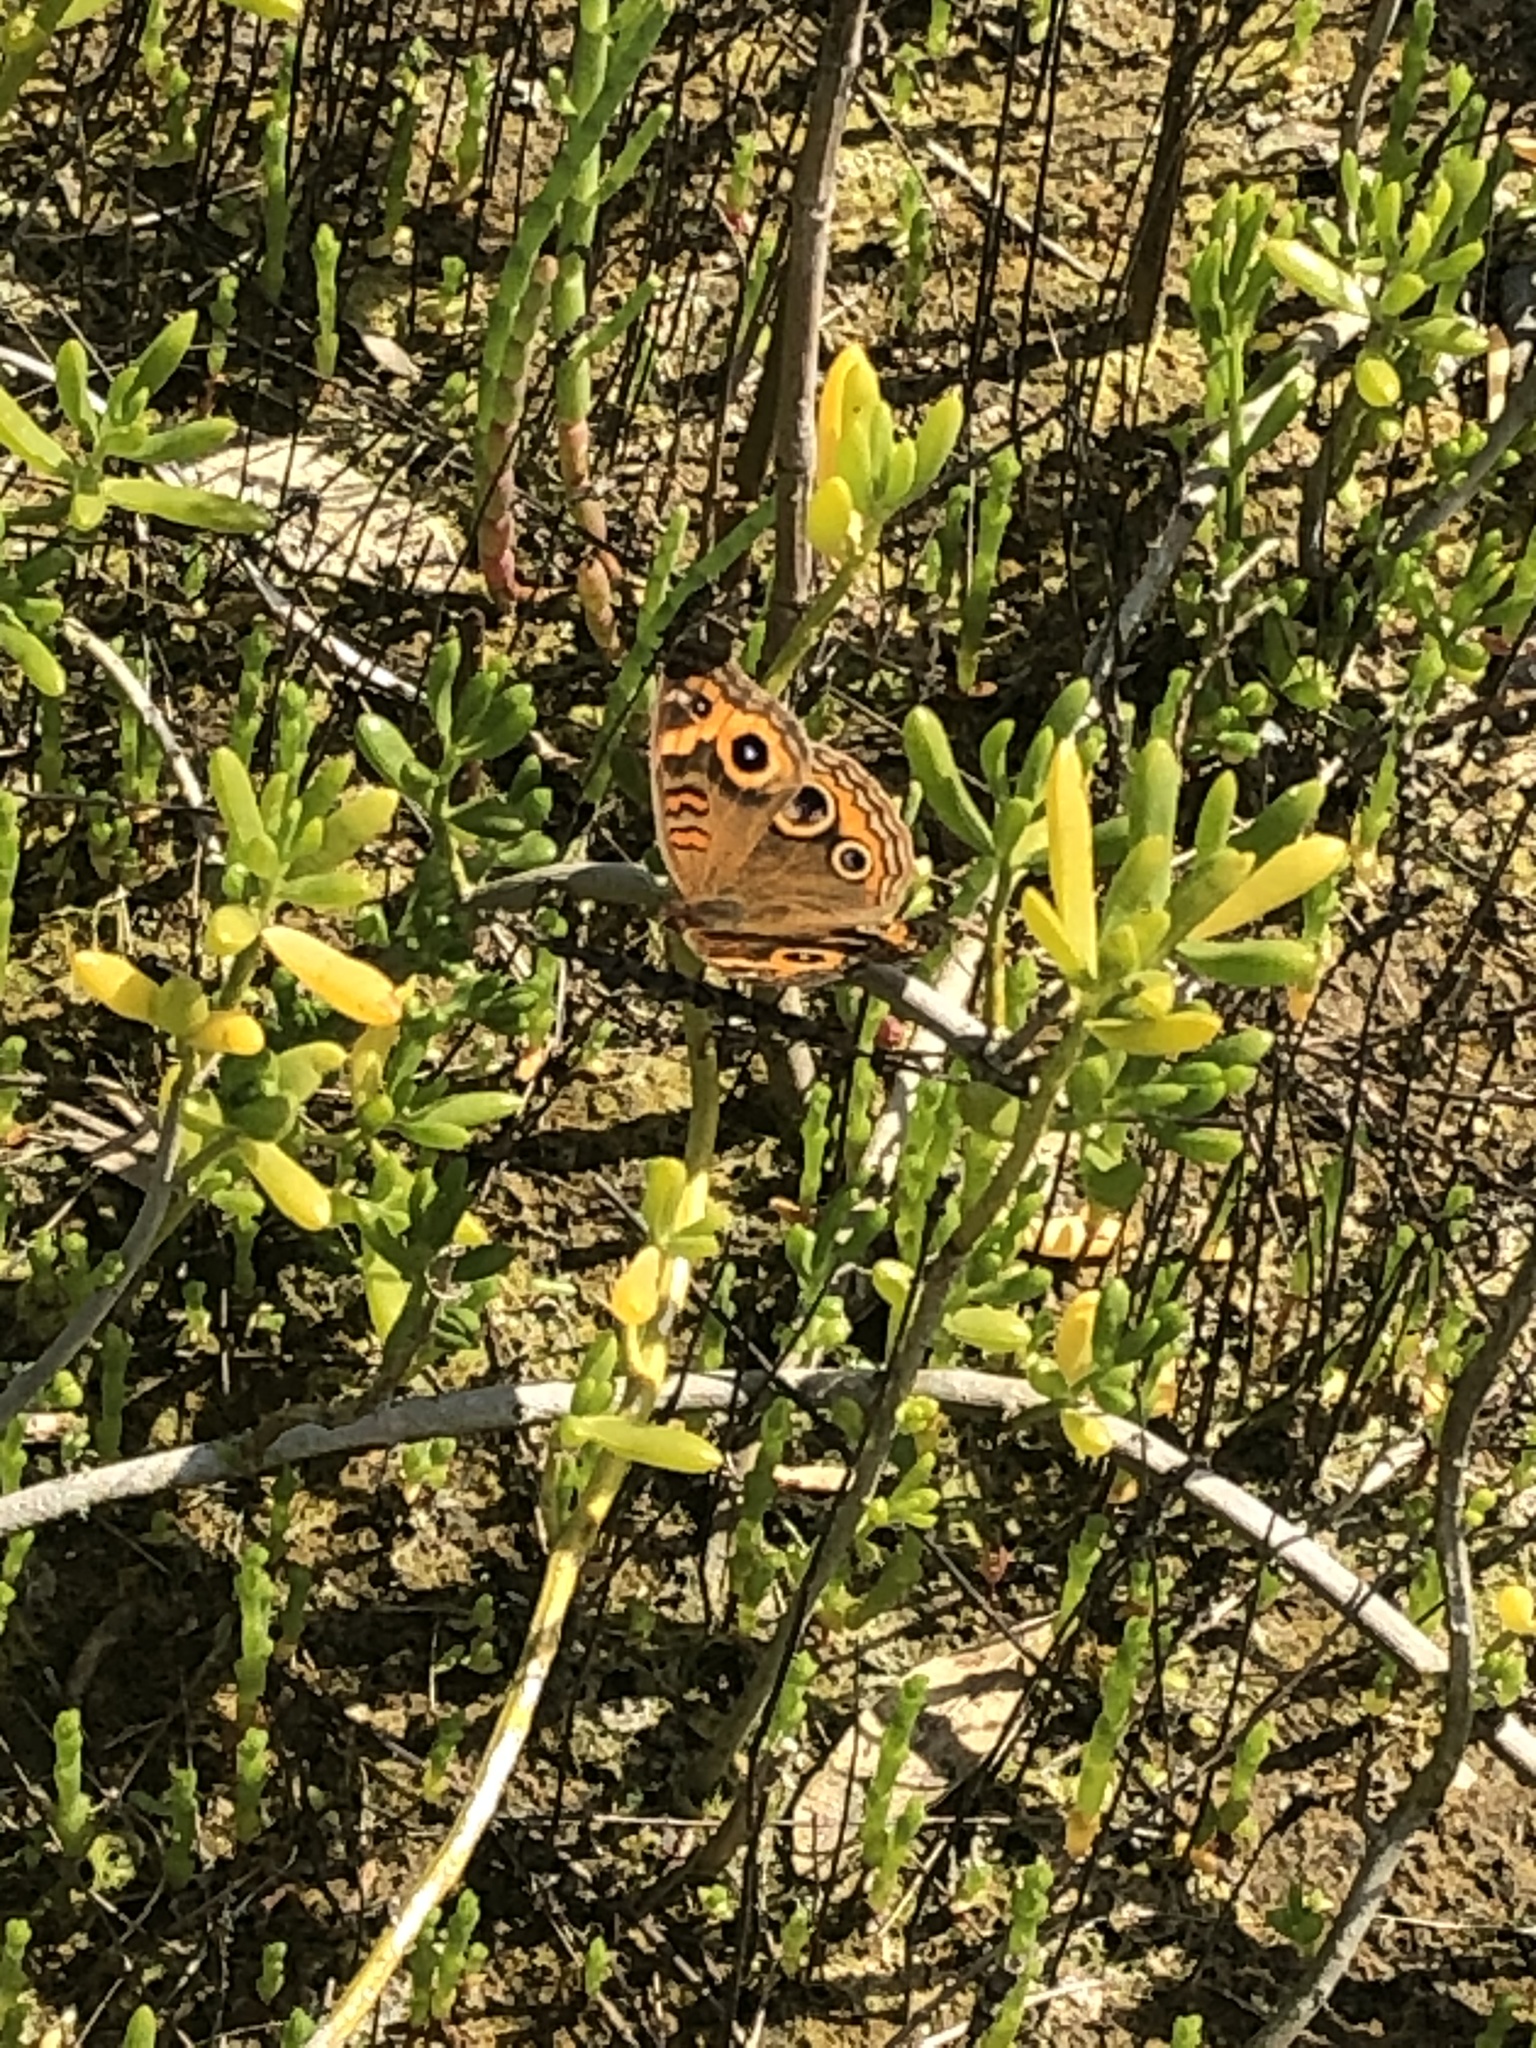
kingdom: Animalia
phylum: Arthropoda
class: Insecta
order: Lepidoptera
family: Nymphalidae
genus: Junonia
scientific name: Junonia neildi
